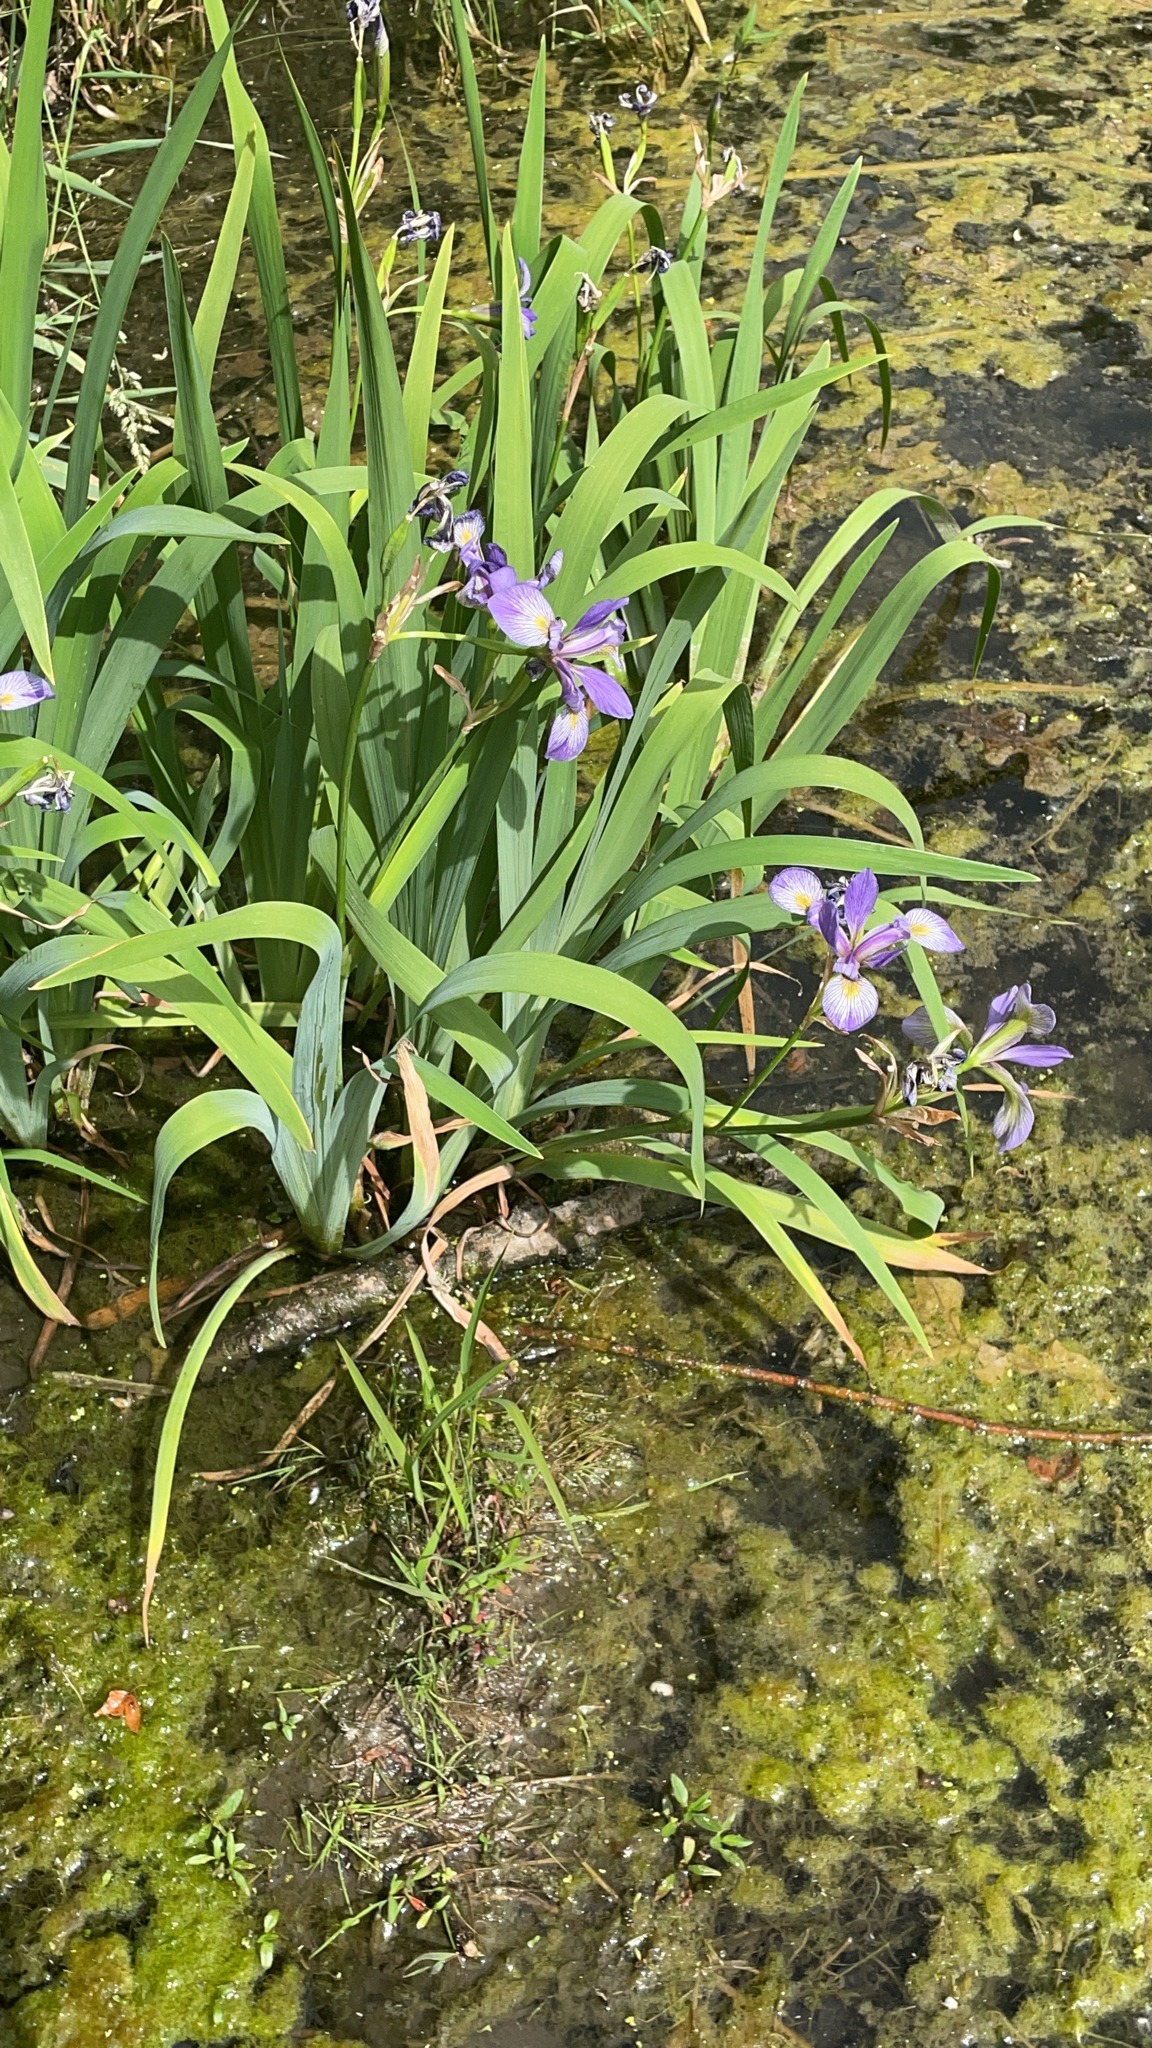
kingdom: Plantae
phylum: Tracheophyta
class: Liliopsida
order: Asparagales
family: Iridaceae
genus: Iris
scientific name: Iris virginica
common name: Southern blue flag
